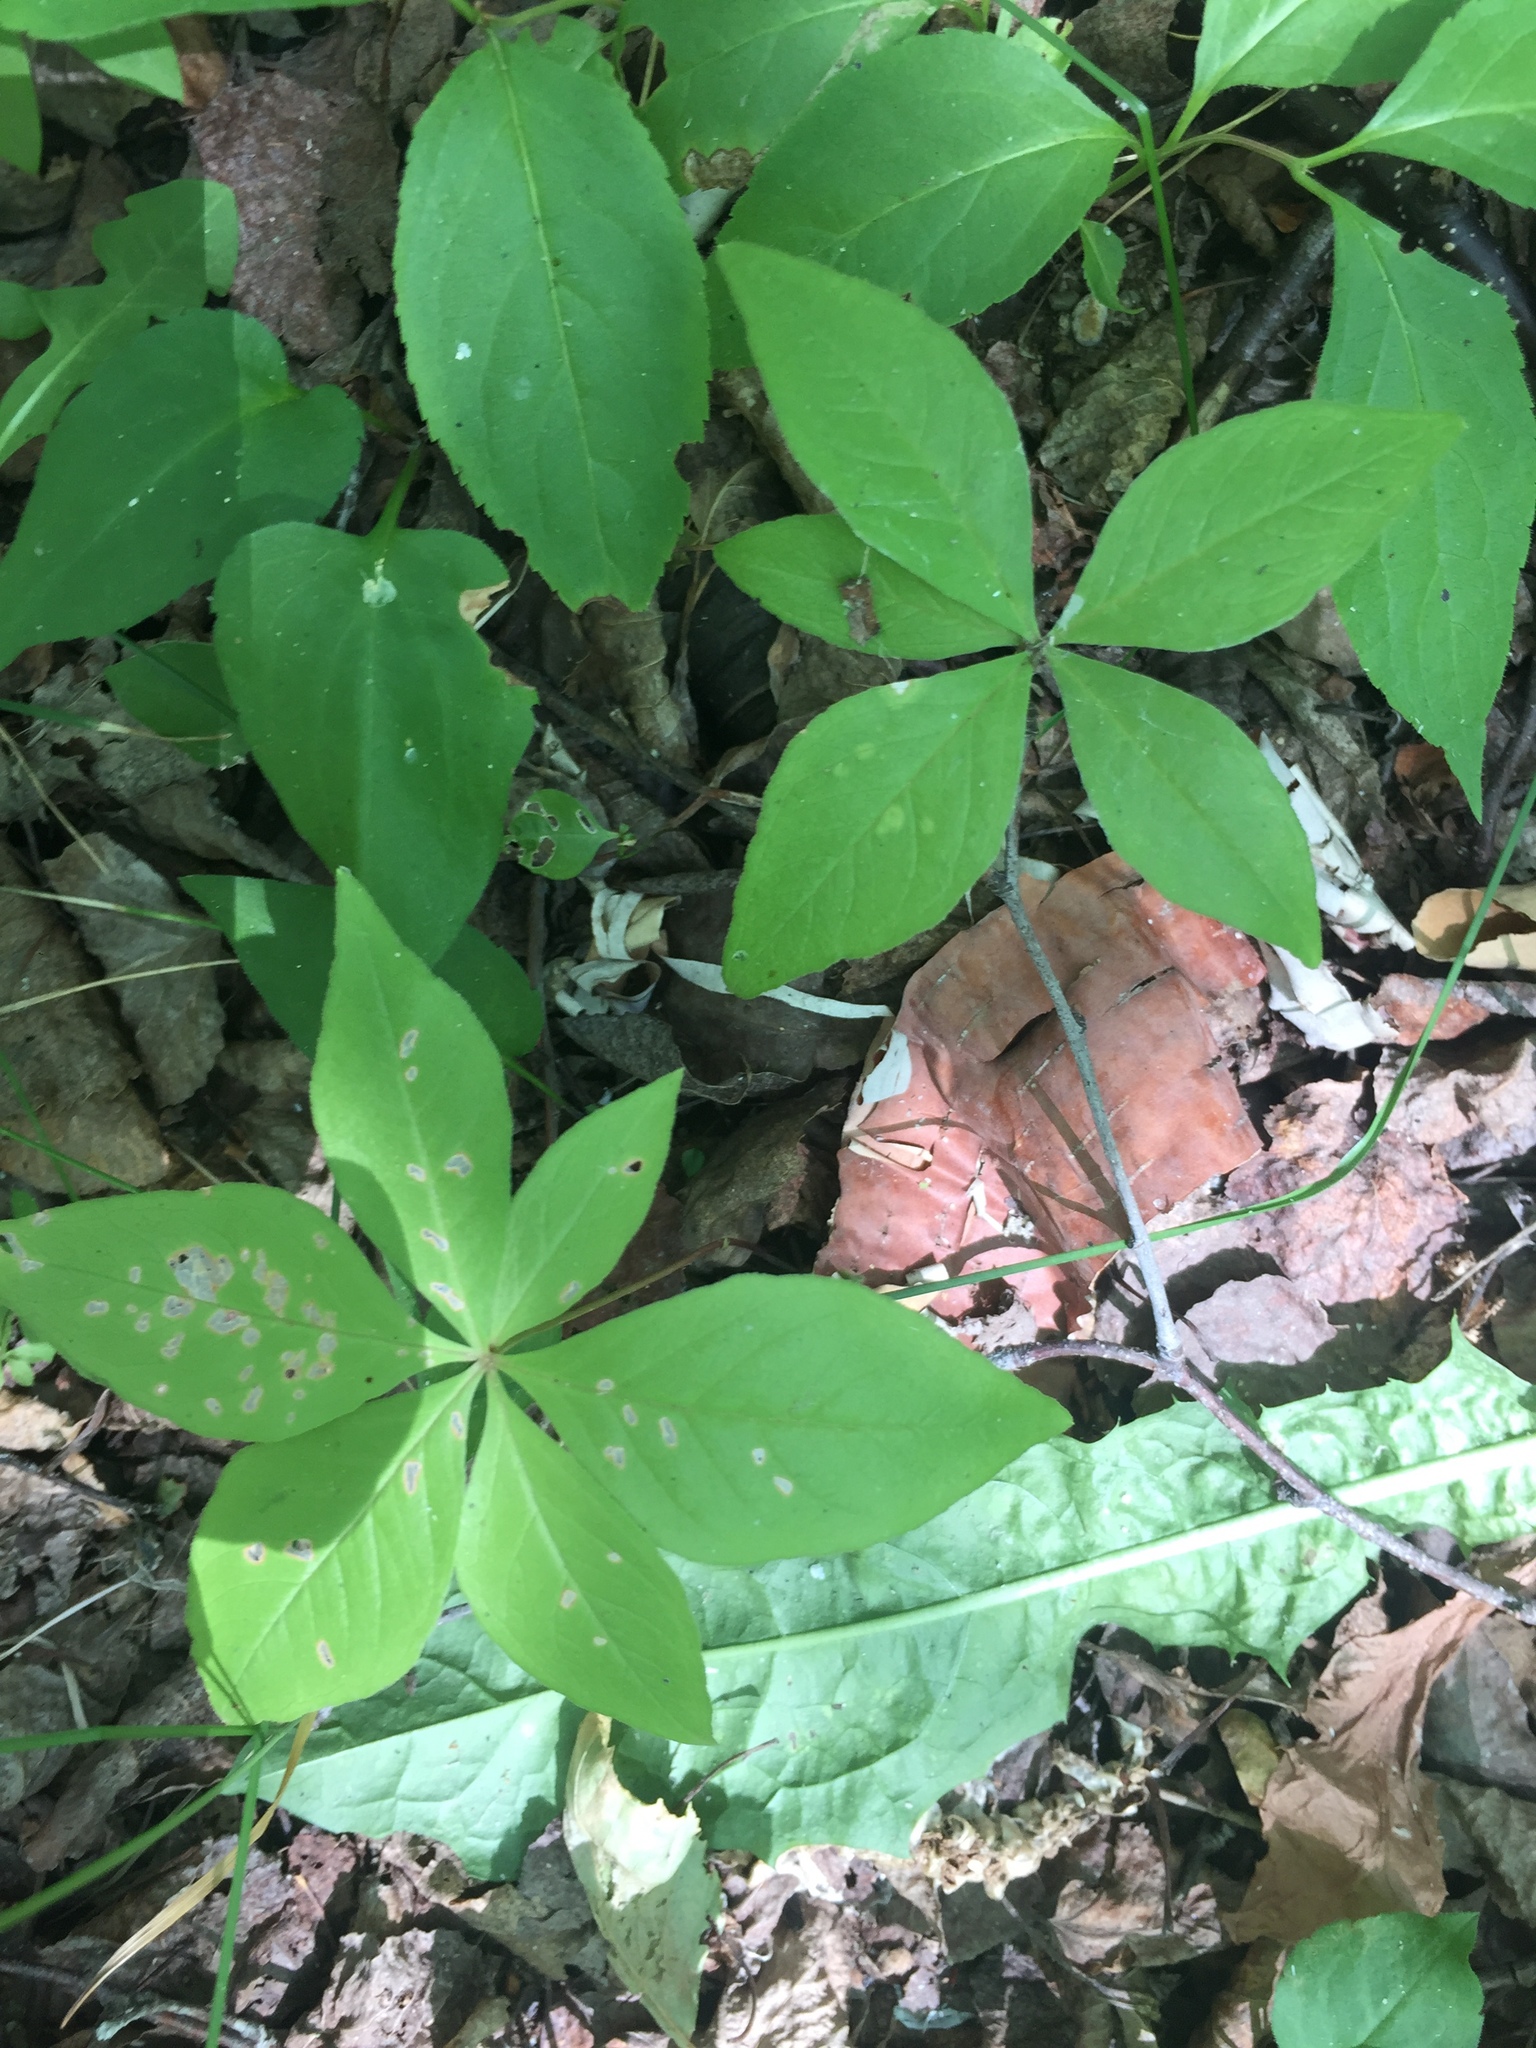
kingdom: Plantae
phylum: Tracheophyta
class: Magnoliopsida
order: Ericales
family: Primulaceae
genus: Lysimachia
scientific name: Lysimachia borealis
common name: American starflower
